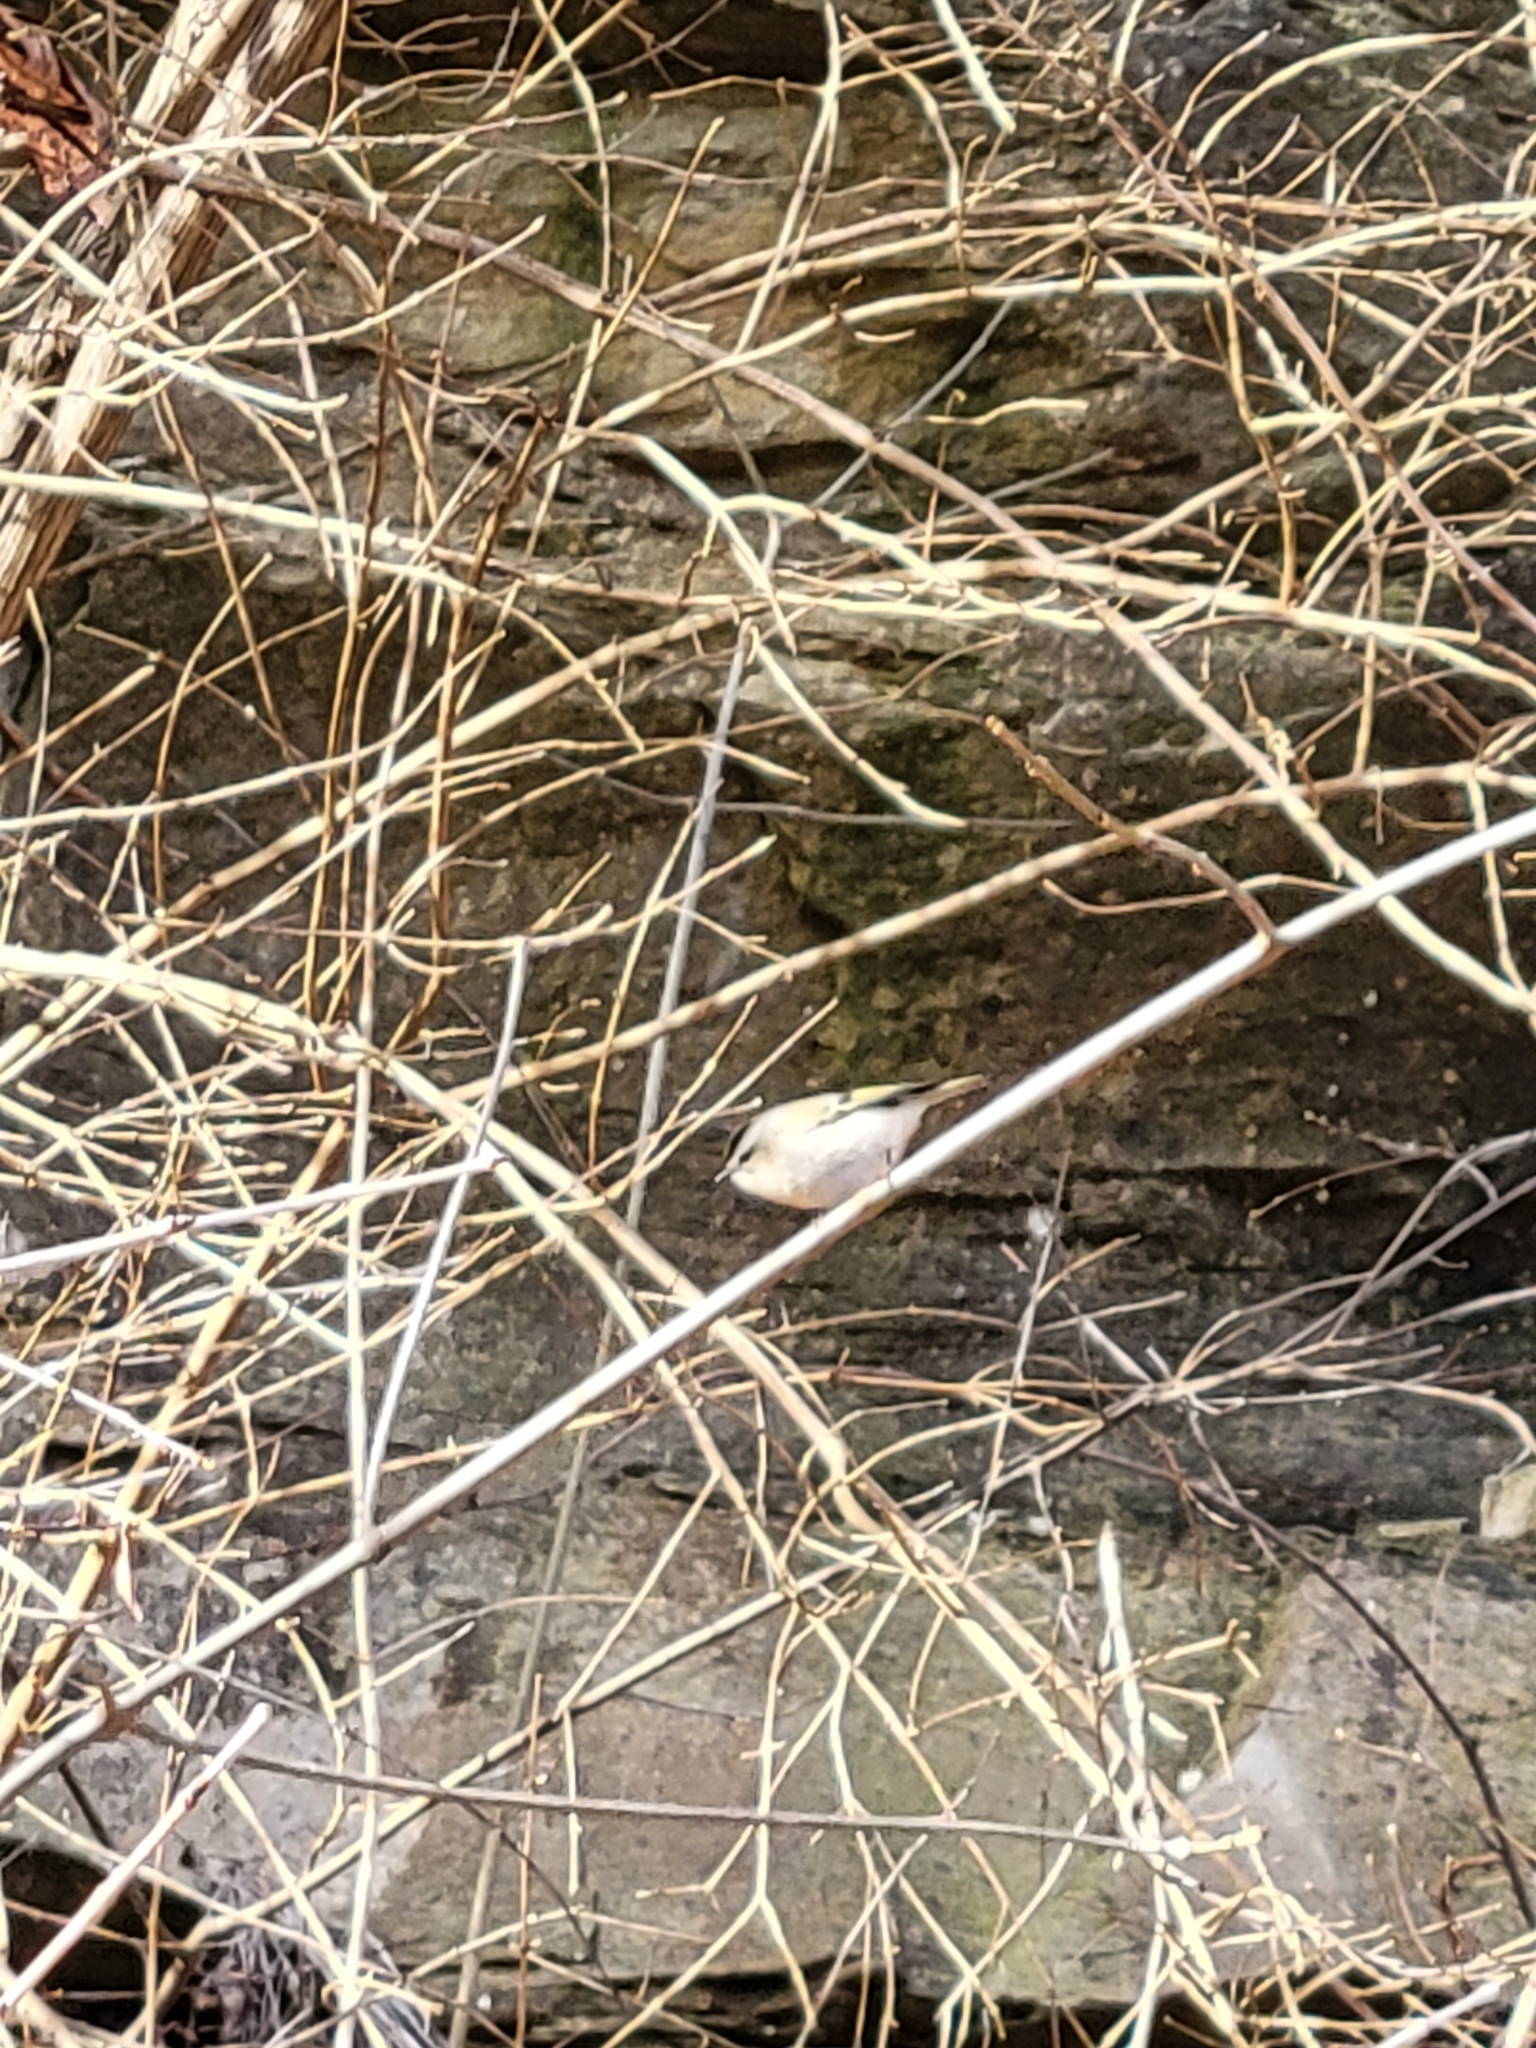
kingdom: Animalia
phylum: Chordata
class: Aves
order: Passeriformes
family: Regulidae
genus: Regulus
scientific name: Regulus satrapa
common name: Golden-crowned kinglet
